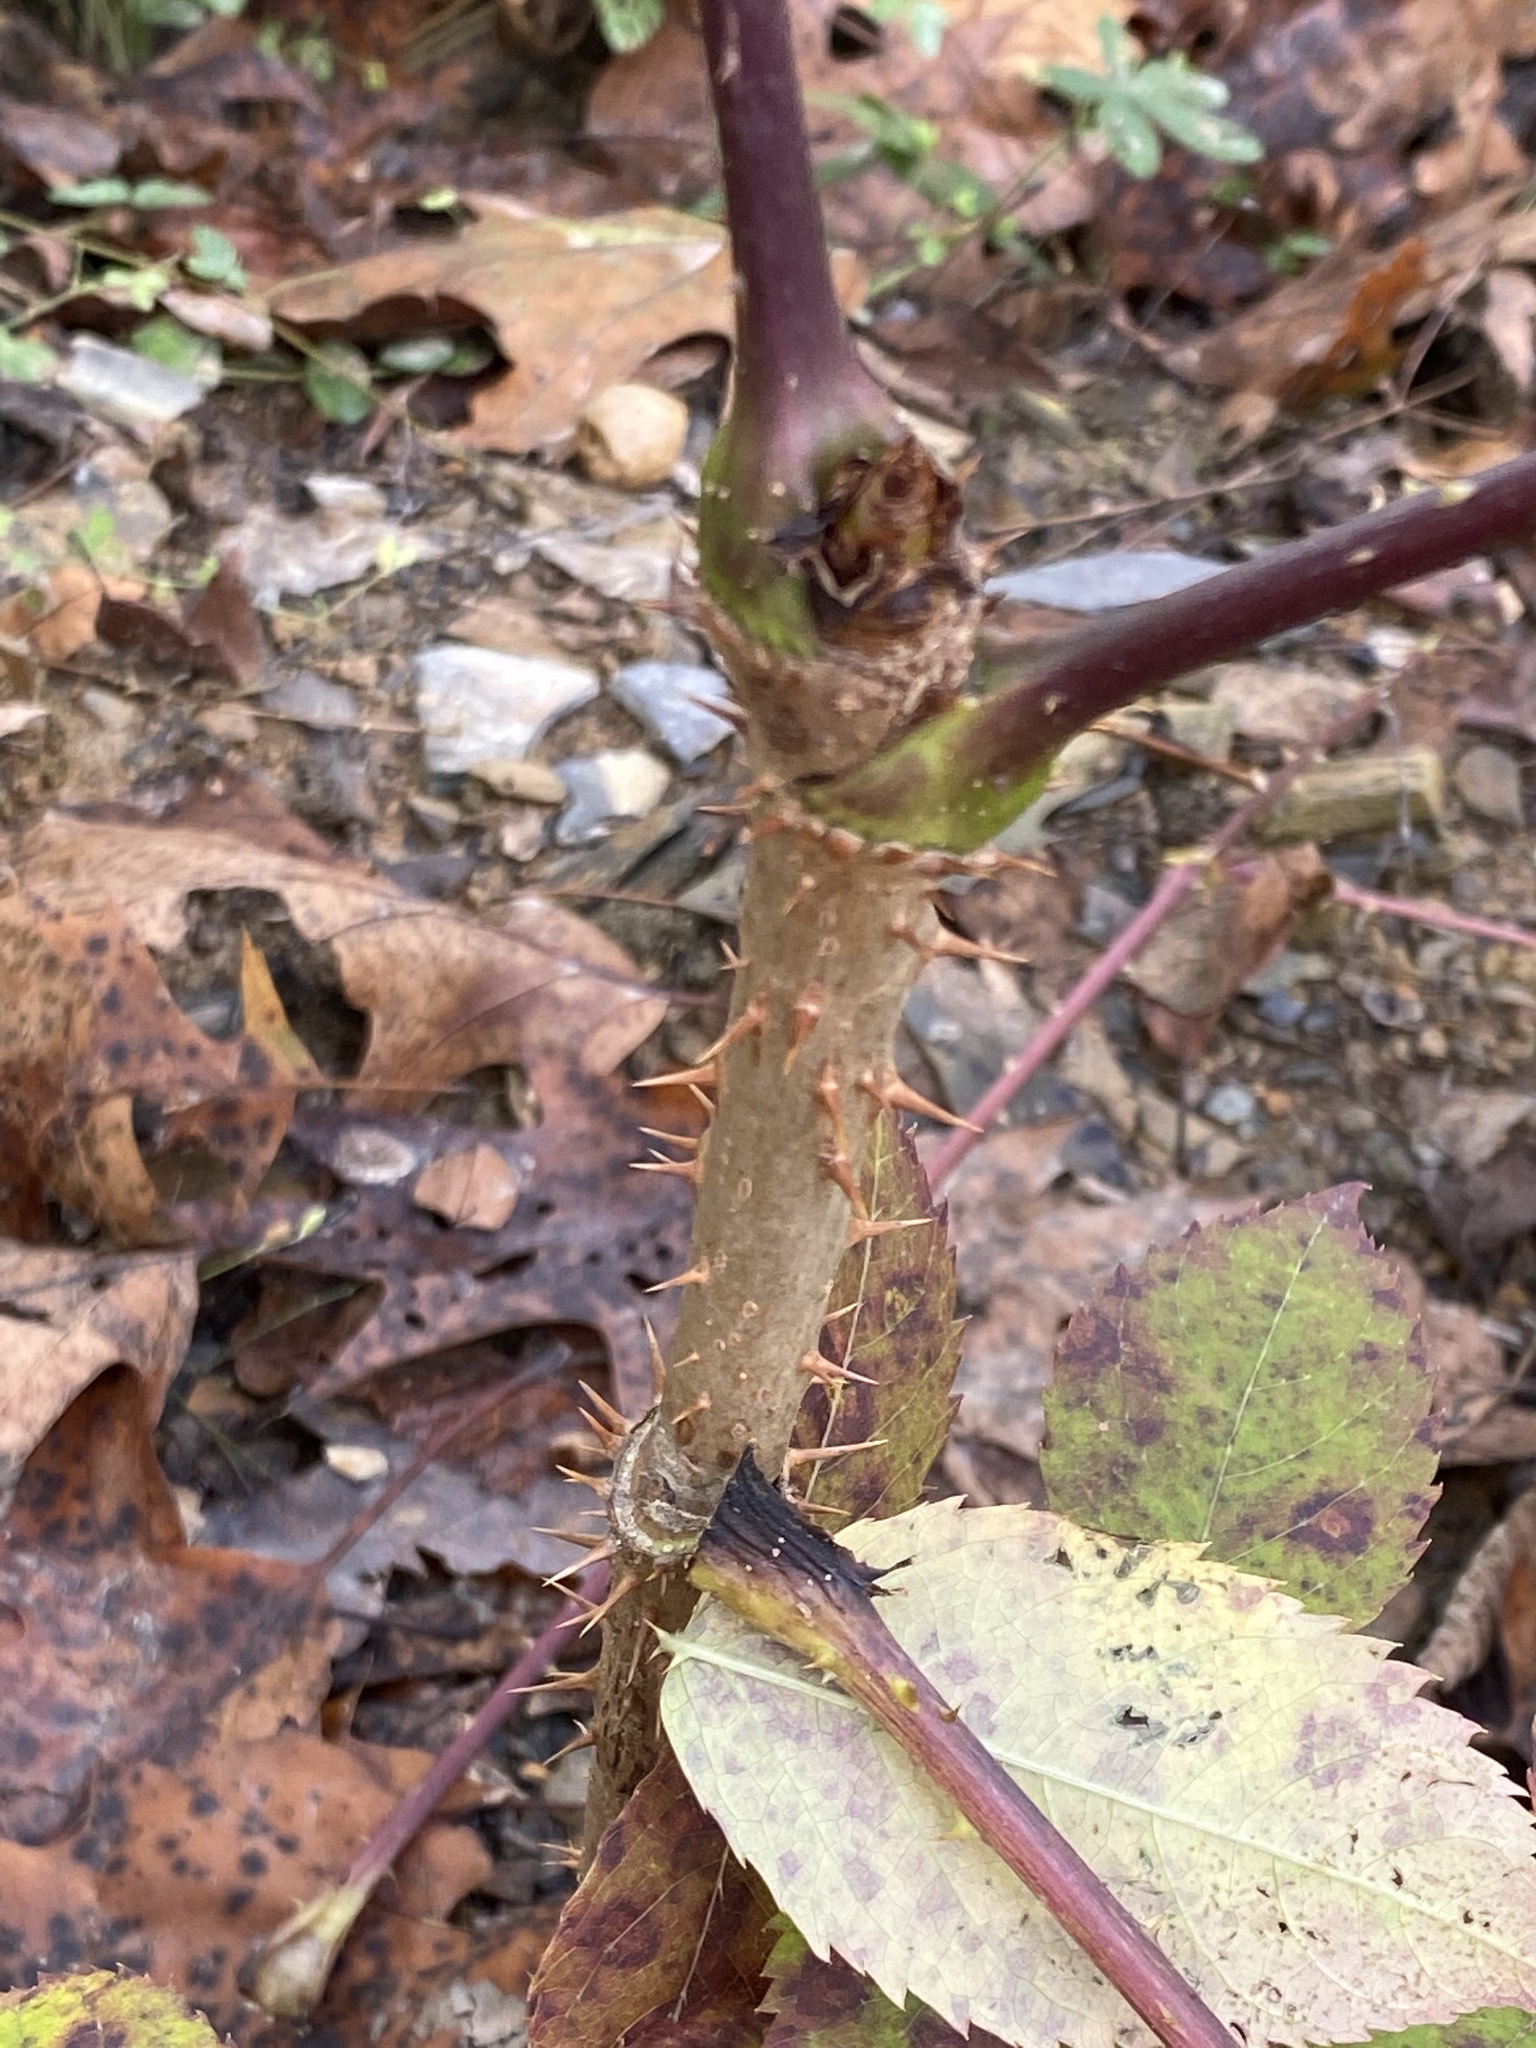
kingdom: Plantae
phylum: Tracheophyta
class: Magnoliopsida
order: Apiales
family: Araliaceae
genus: Aralia
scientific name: Aralia spinosa
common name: Hercules'-club
